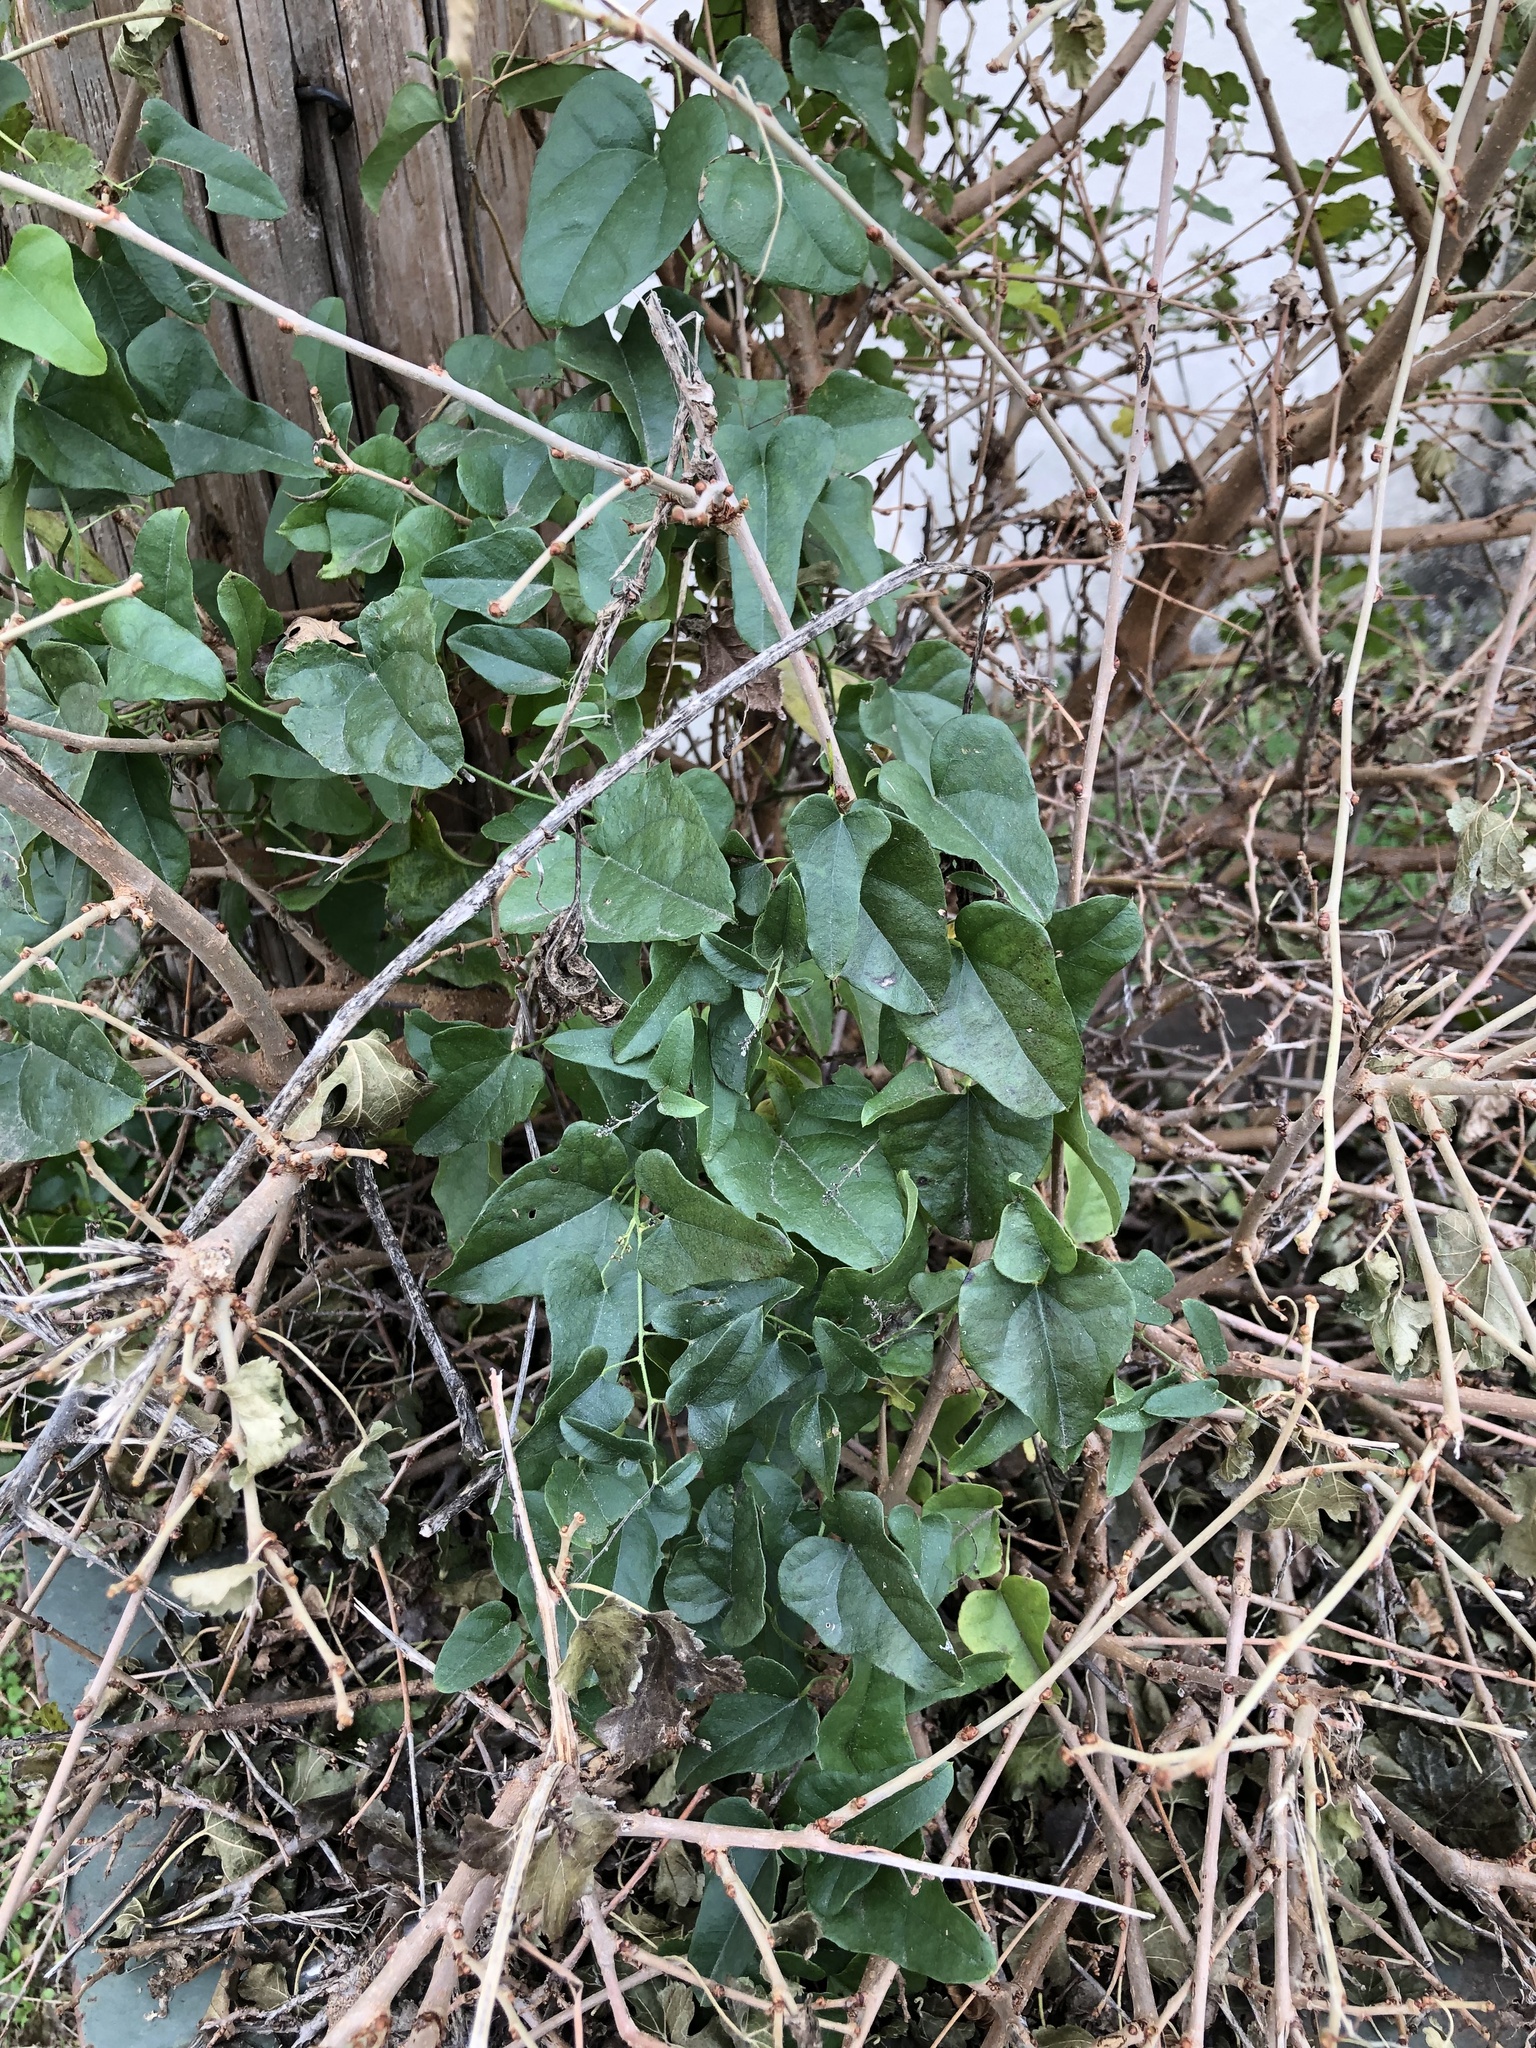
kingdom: Plantae
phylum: Tracheophyta
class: Magnoliopsida
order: Ranunculales
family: Menispermaceae
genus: Cocculus
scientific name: Cocculus carolinus
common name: Carolina moonseed
